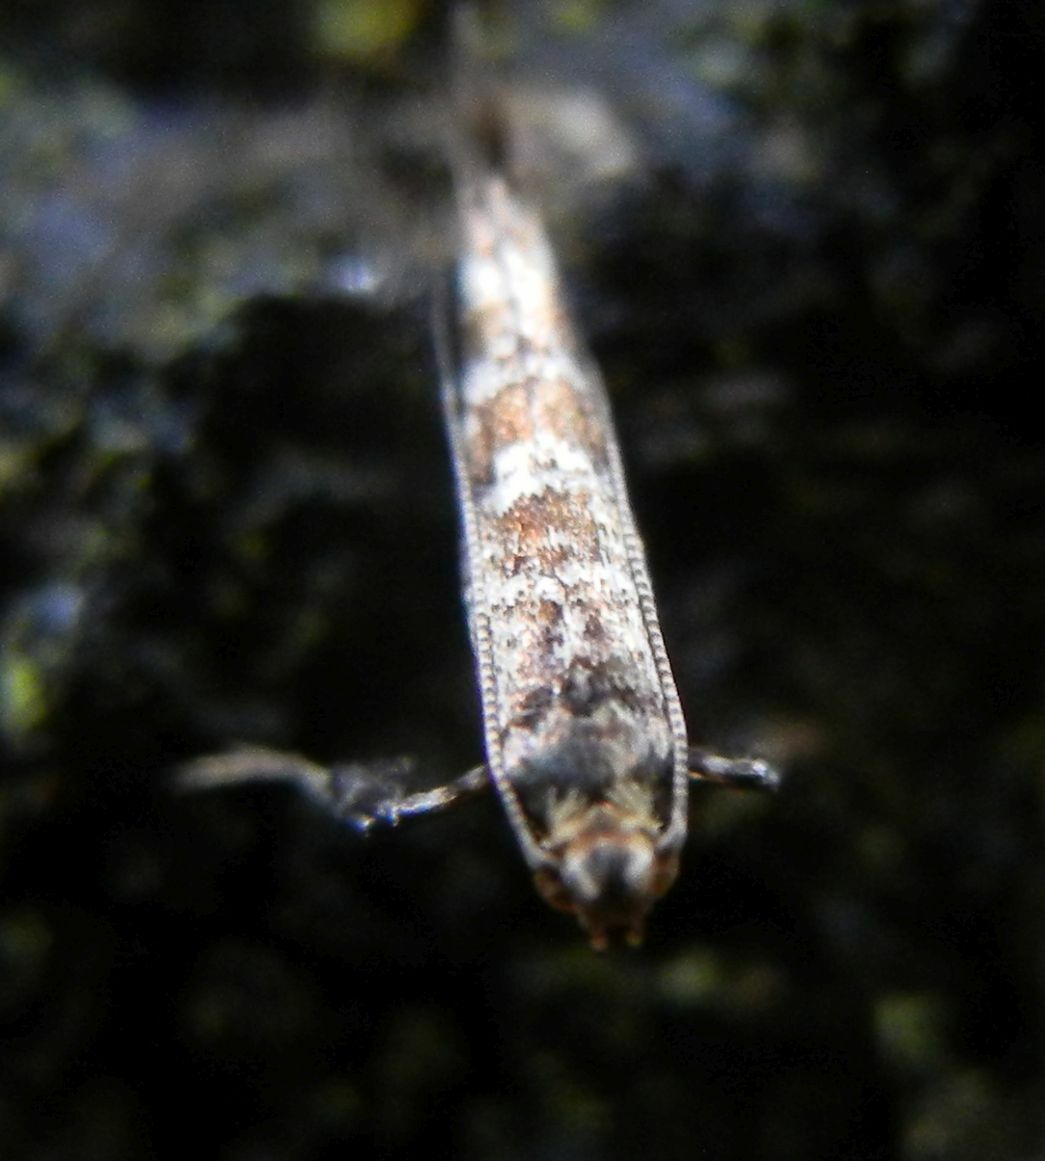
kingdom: Animalia
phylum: Arthropoda
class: Insecta
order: Lepidoptera
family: Gracillariidae
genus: Gracillaria
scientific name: Gracillaria syringella
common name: Common slender
